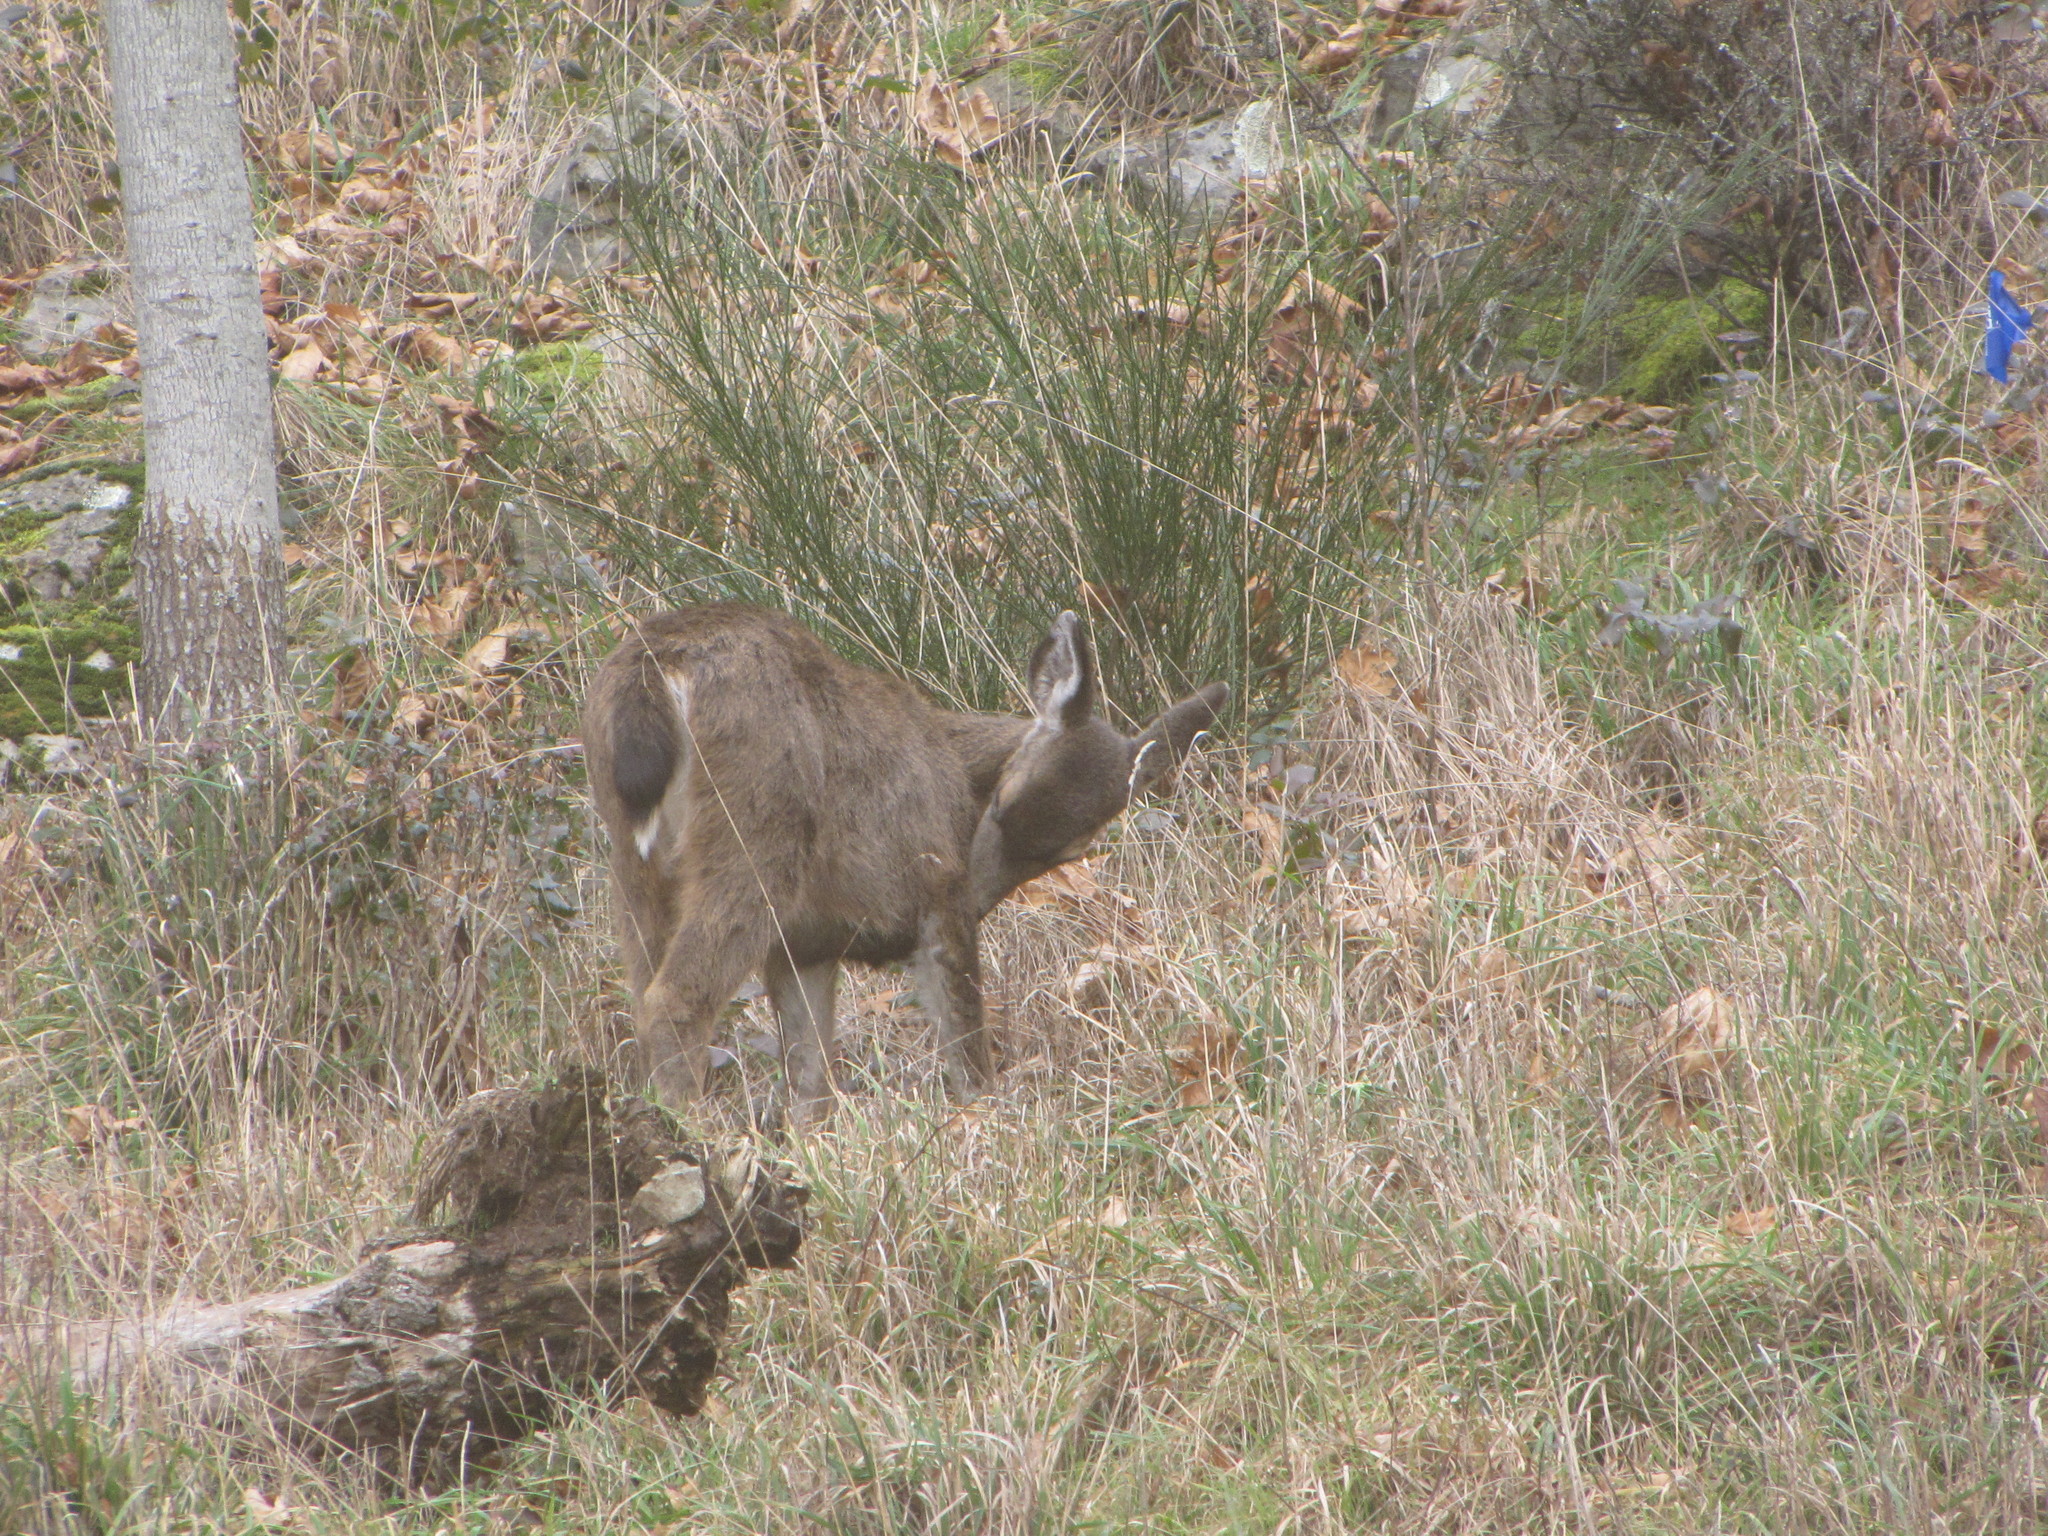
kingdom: Animalia
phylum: Chordata
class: Mammalia
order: Artiodactyla
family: Cervidae
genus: Odocoileus
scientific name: Odocoileus hemionus
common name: Mule deer
